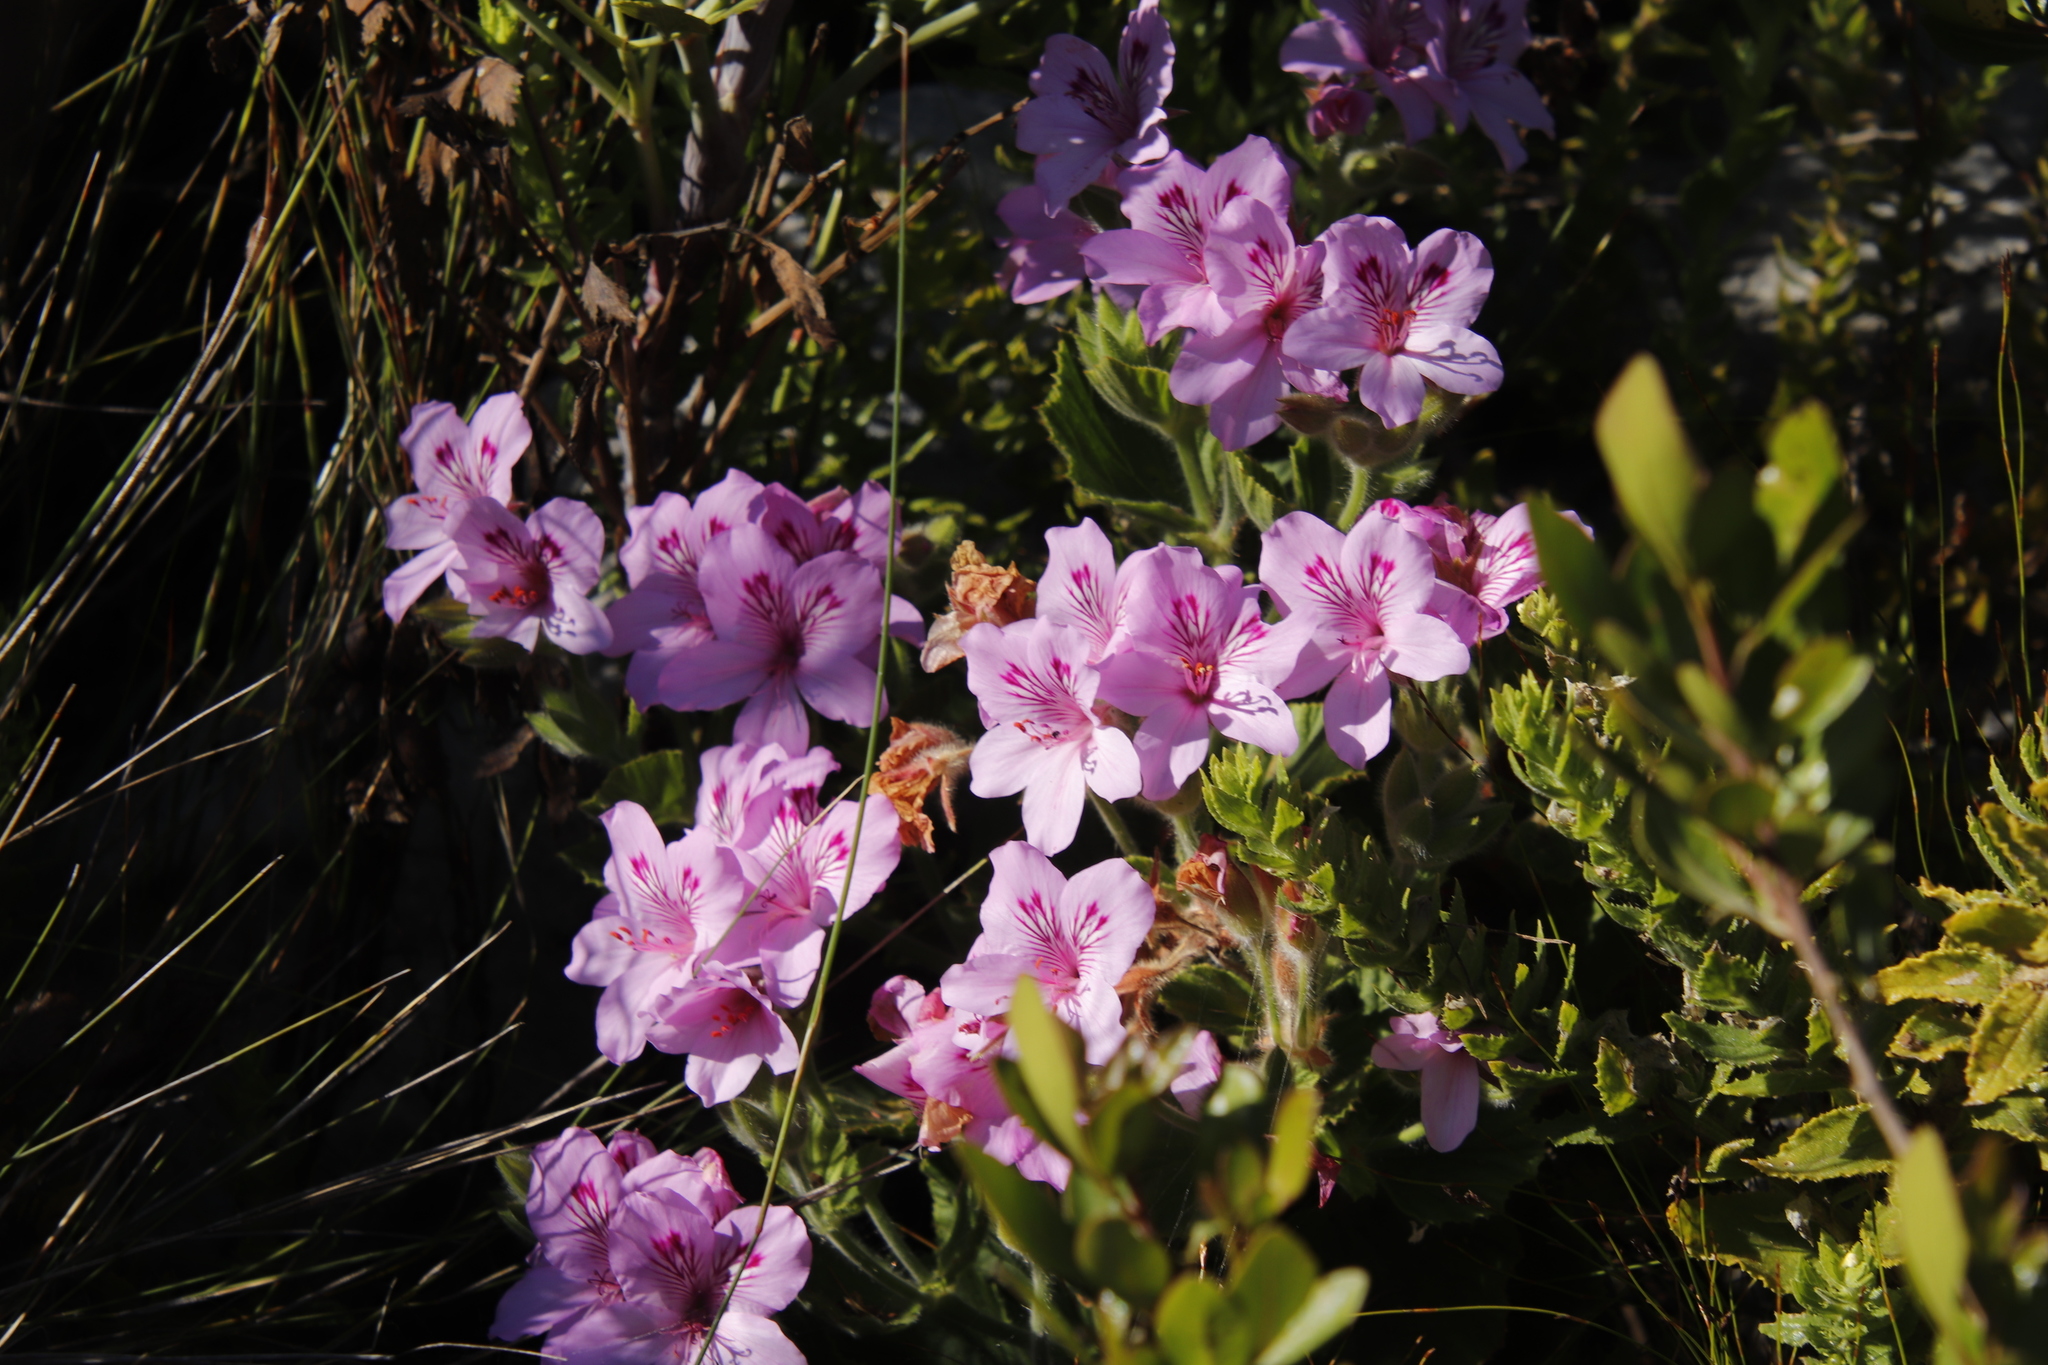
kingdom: Plantae
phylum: Tracheophyta
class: Magnoliopsida
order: Geraniales
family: Geraniaceae
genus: Pelargonium
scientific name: Pelargonium cucullatum
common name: Tree pelargonium
